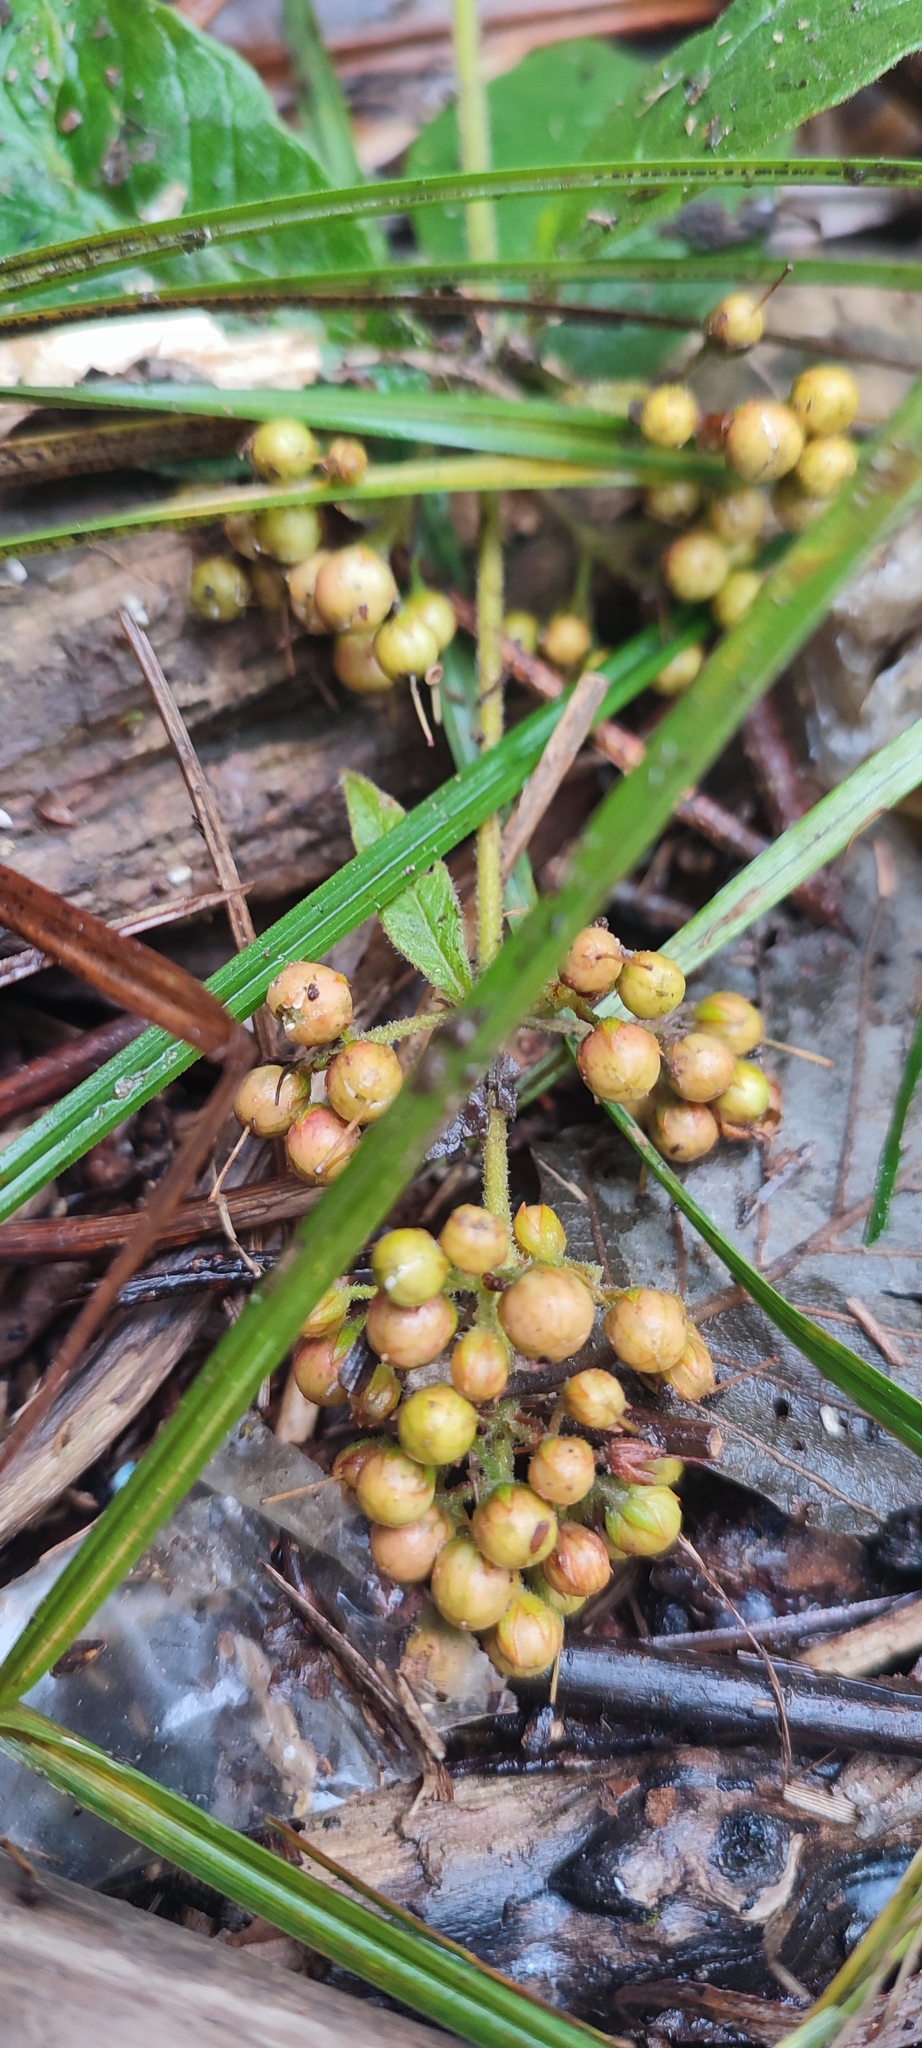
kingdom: Plantae
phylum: Tracheophyta
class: Magnoliopsida
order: Ericales
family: Primulaceae
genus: Lysimachia
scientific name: Lysimachia vulgaris
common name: Yellow loosestrife
